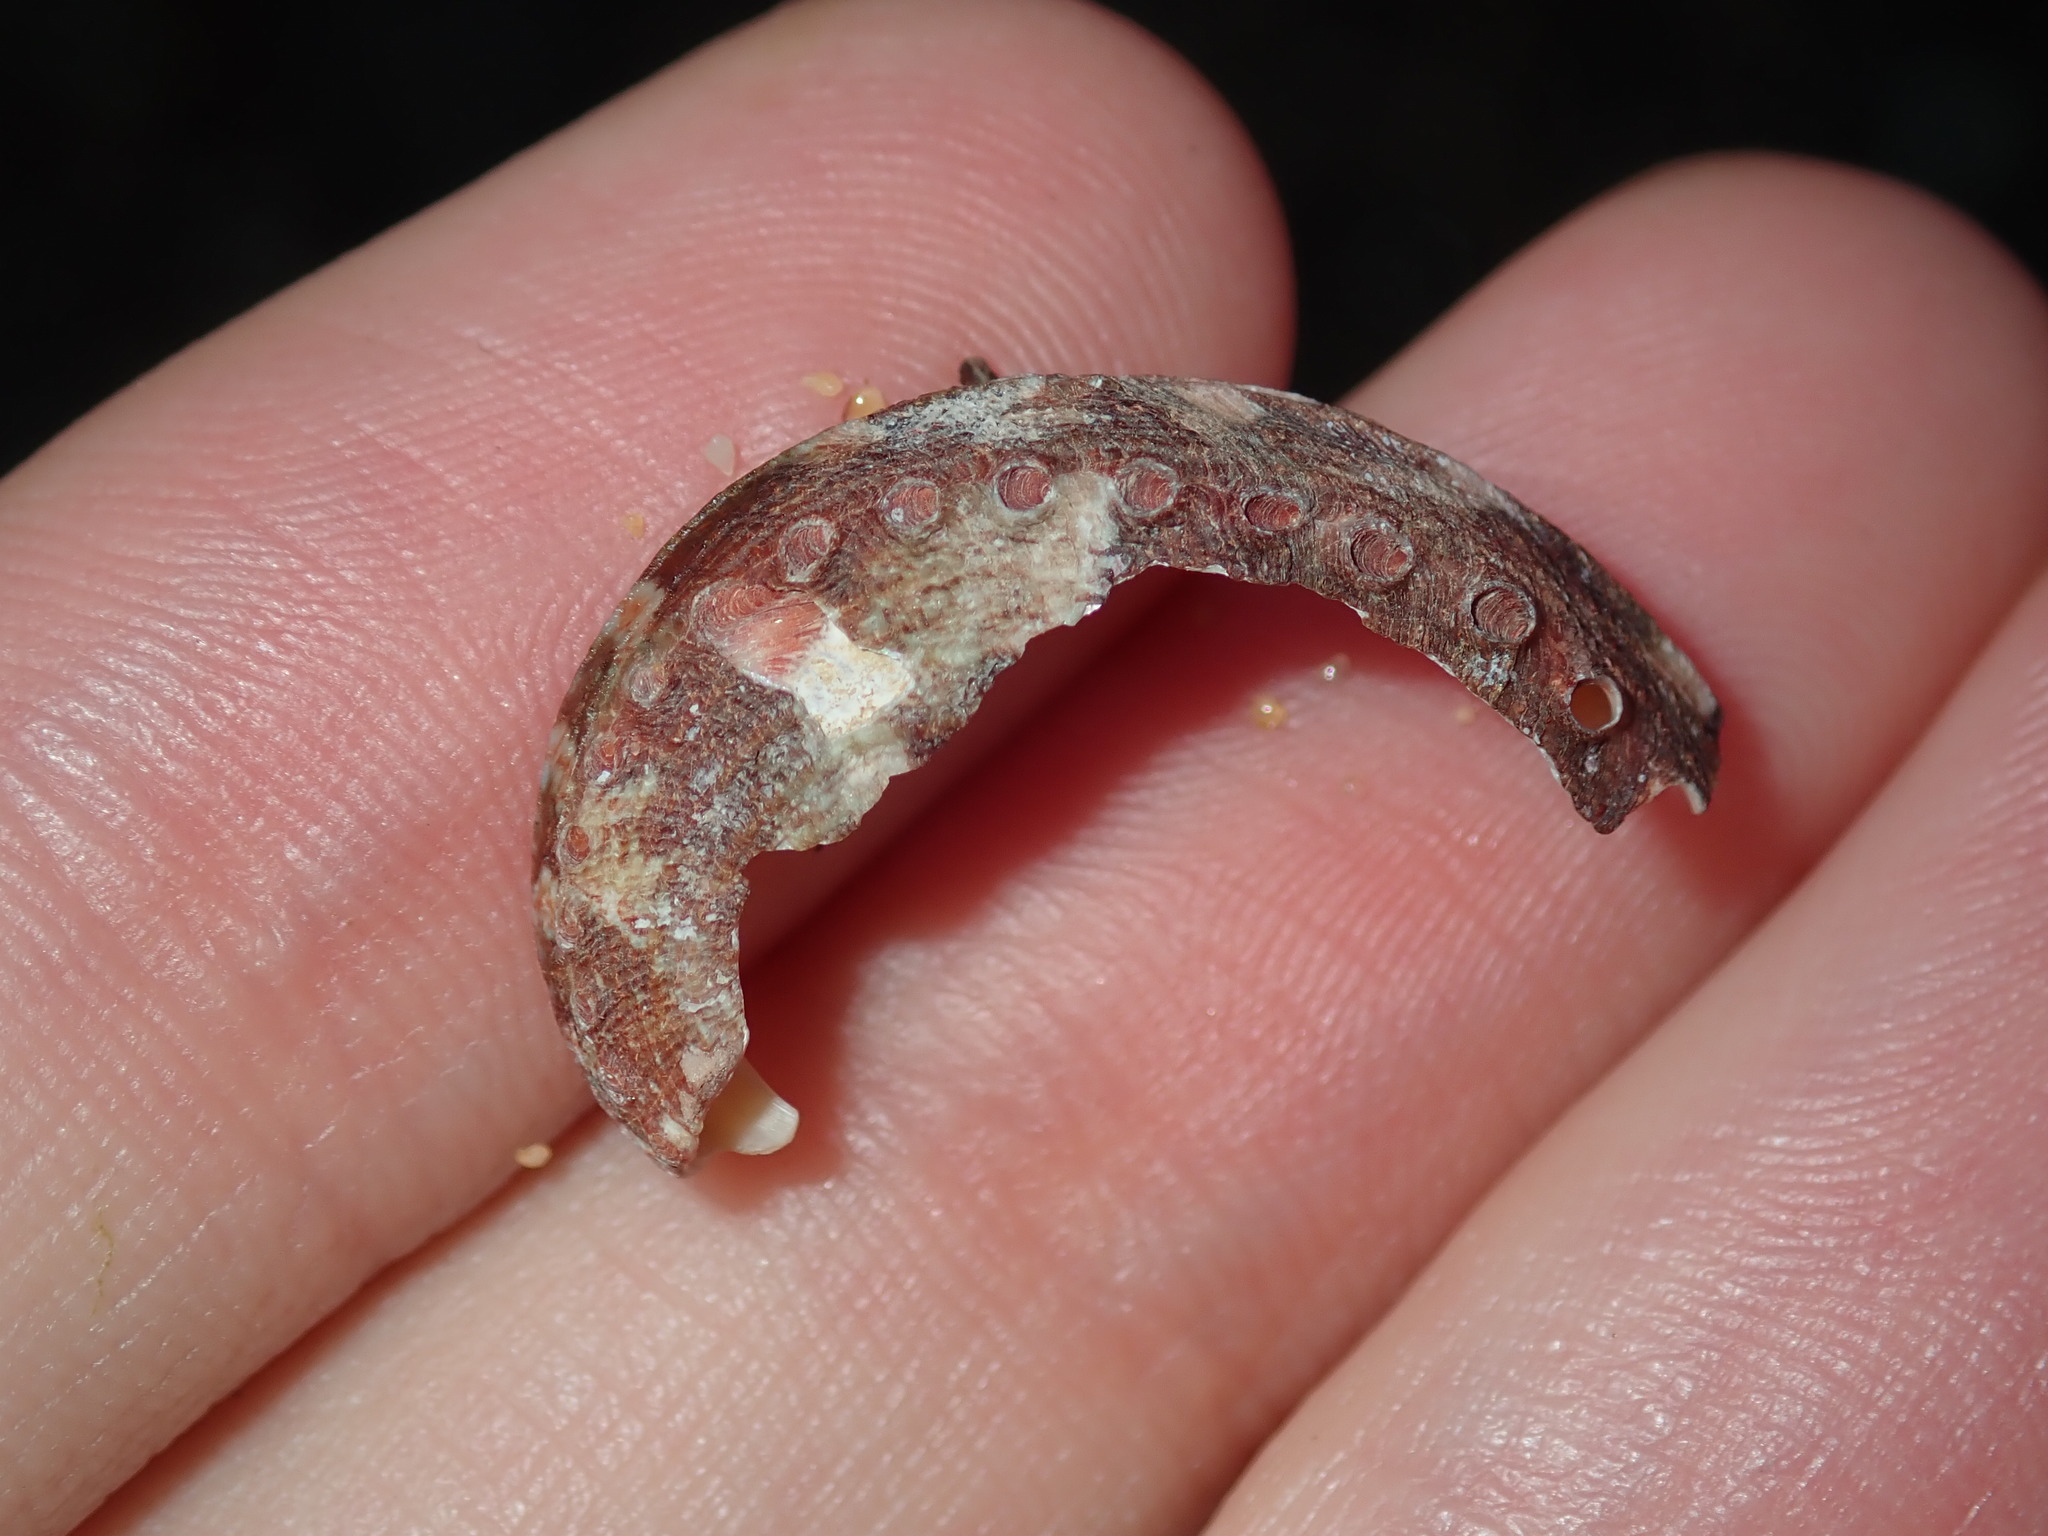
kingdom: Animalia
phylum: Mollusca
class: Gastropoda
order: Lepetellida
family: Haliotidae
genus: Haliotis
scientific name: Haliotis coccoradiata
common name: Reddish-rayed abalone
